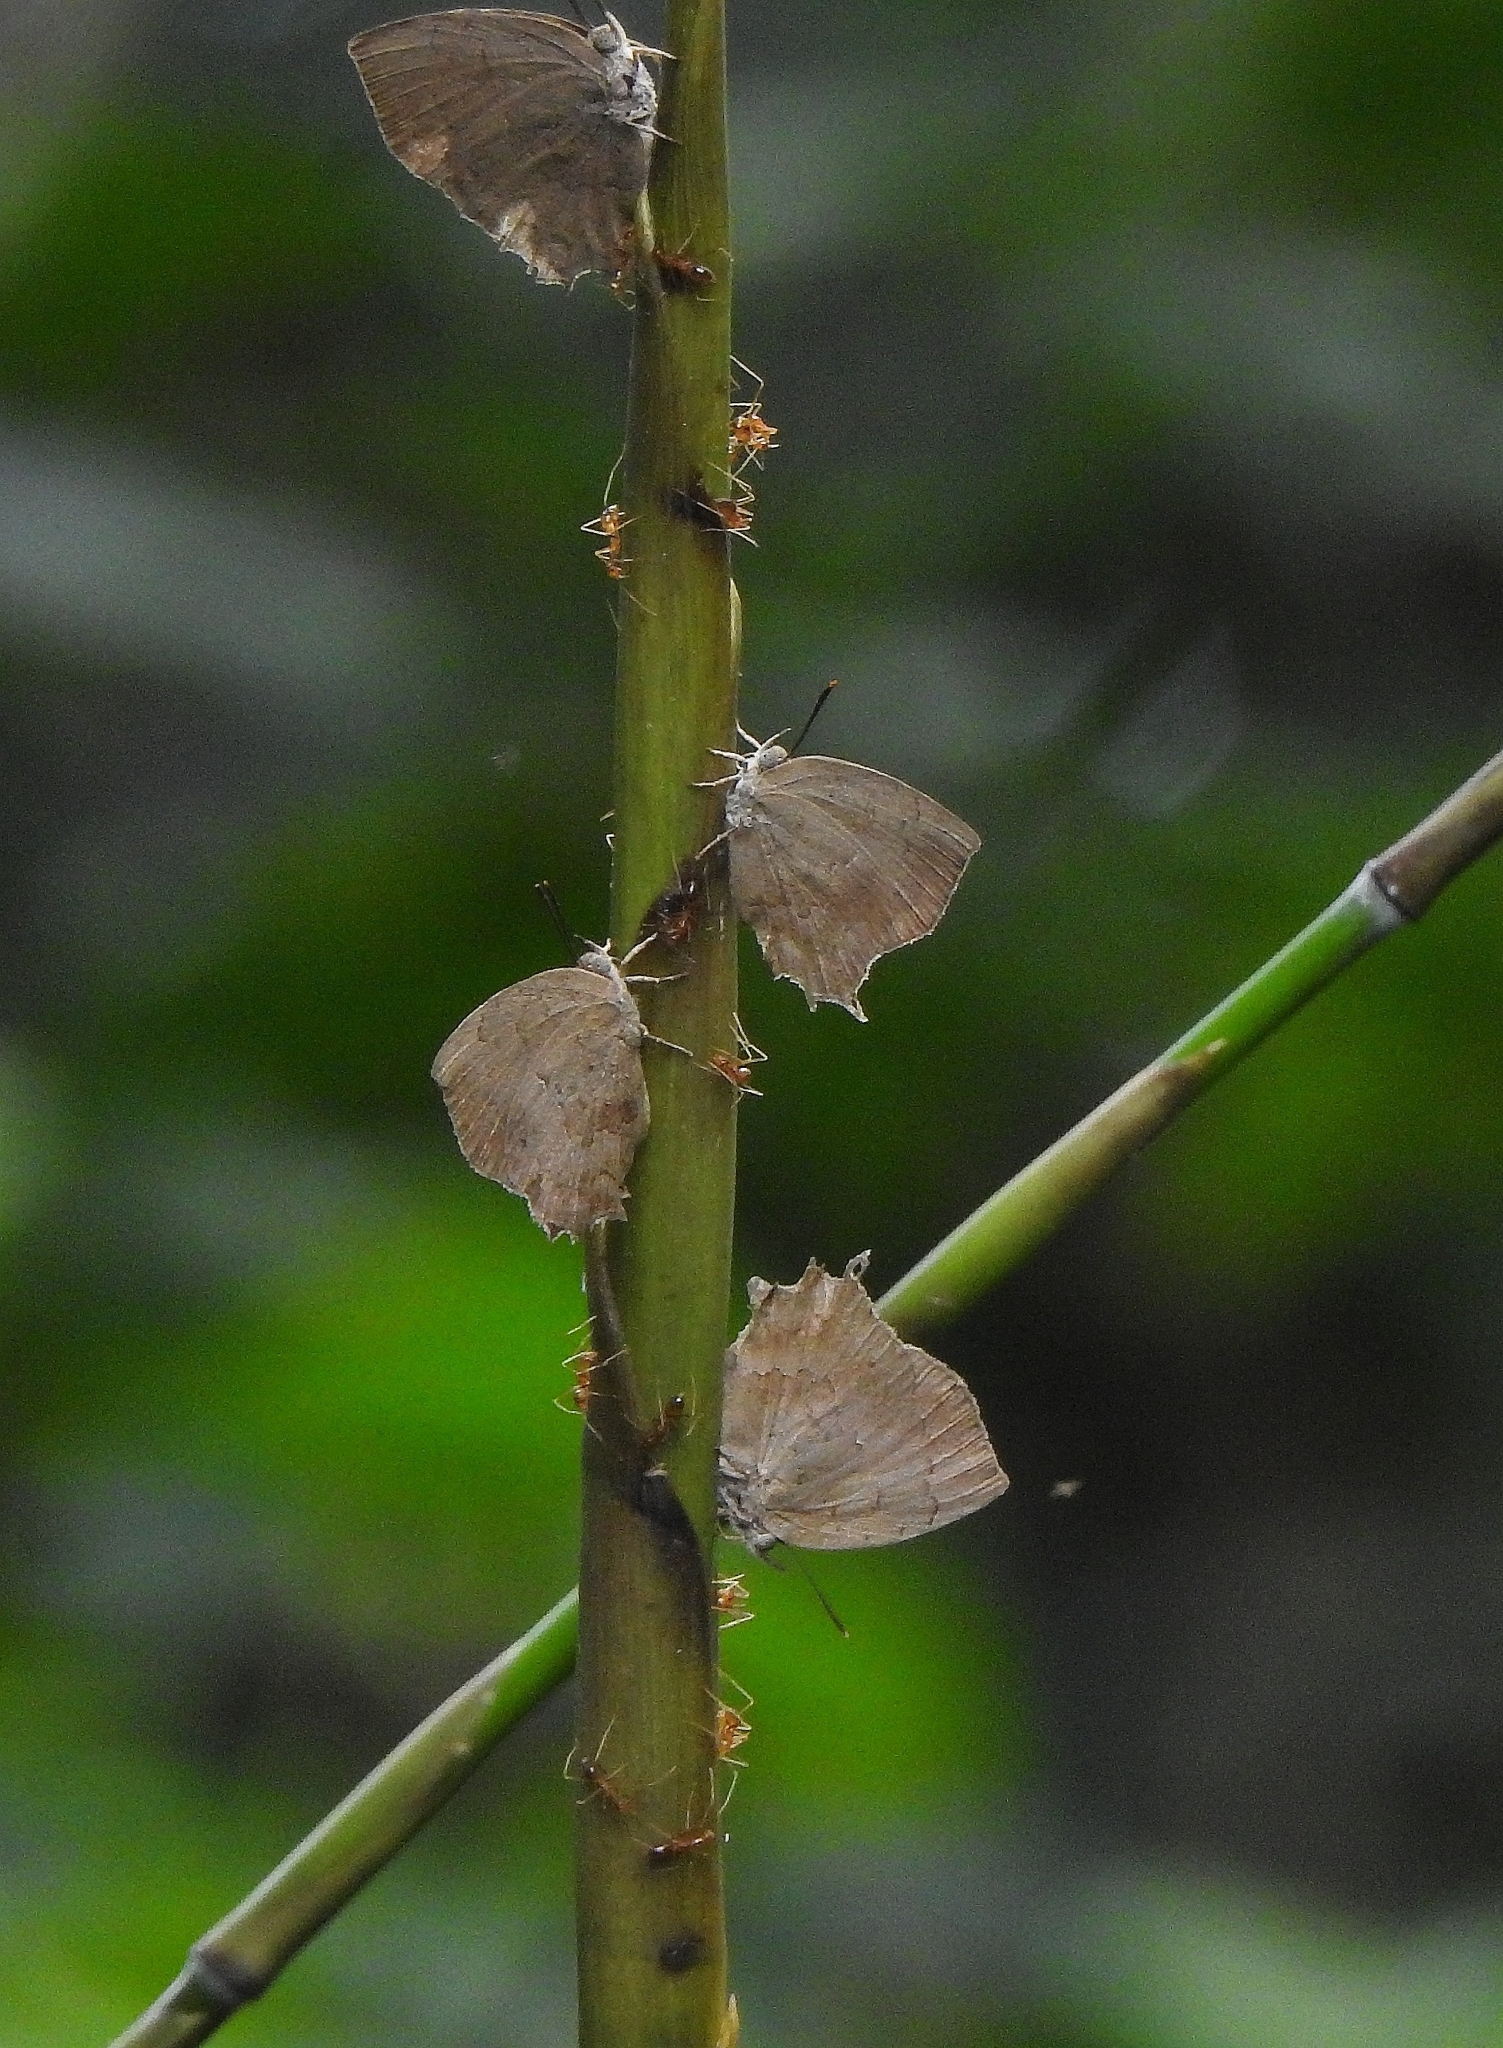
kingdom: Animalia
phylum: Arthropoda
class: Insecta
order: Lepidoptera
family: Lycaenidae
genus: Surendra
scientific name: Surendra quercetorum
